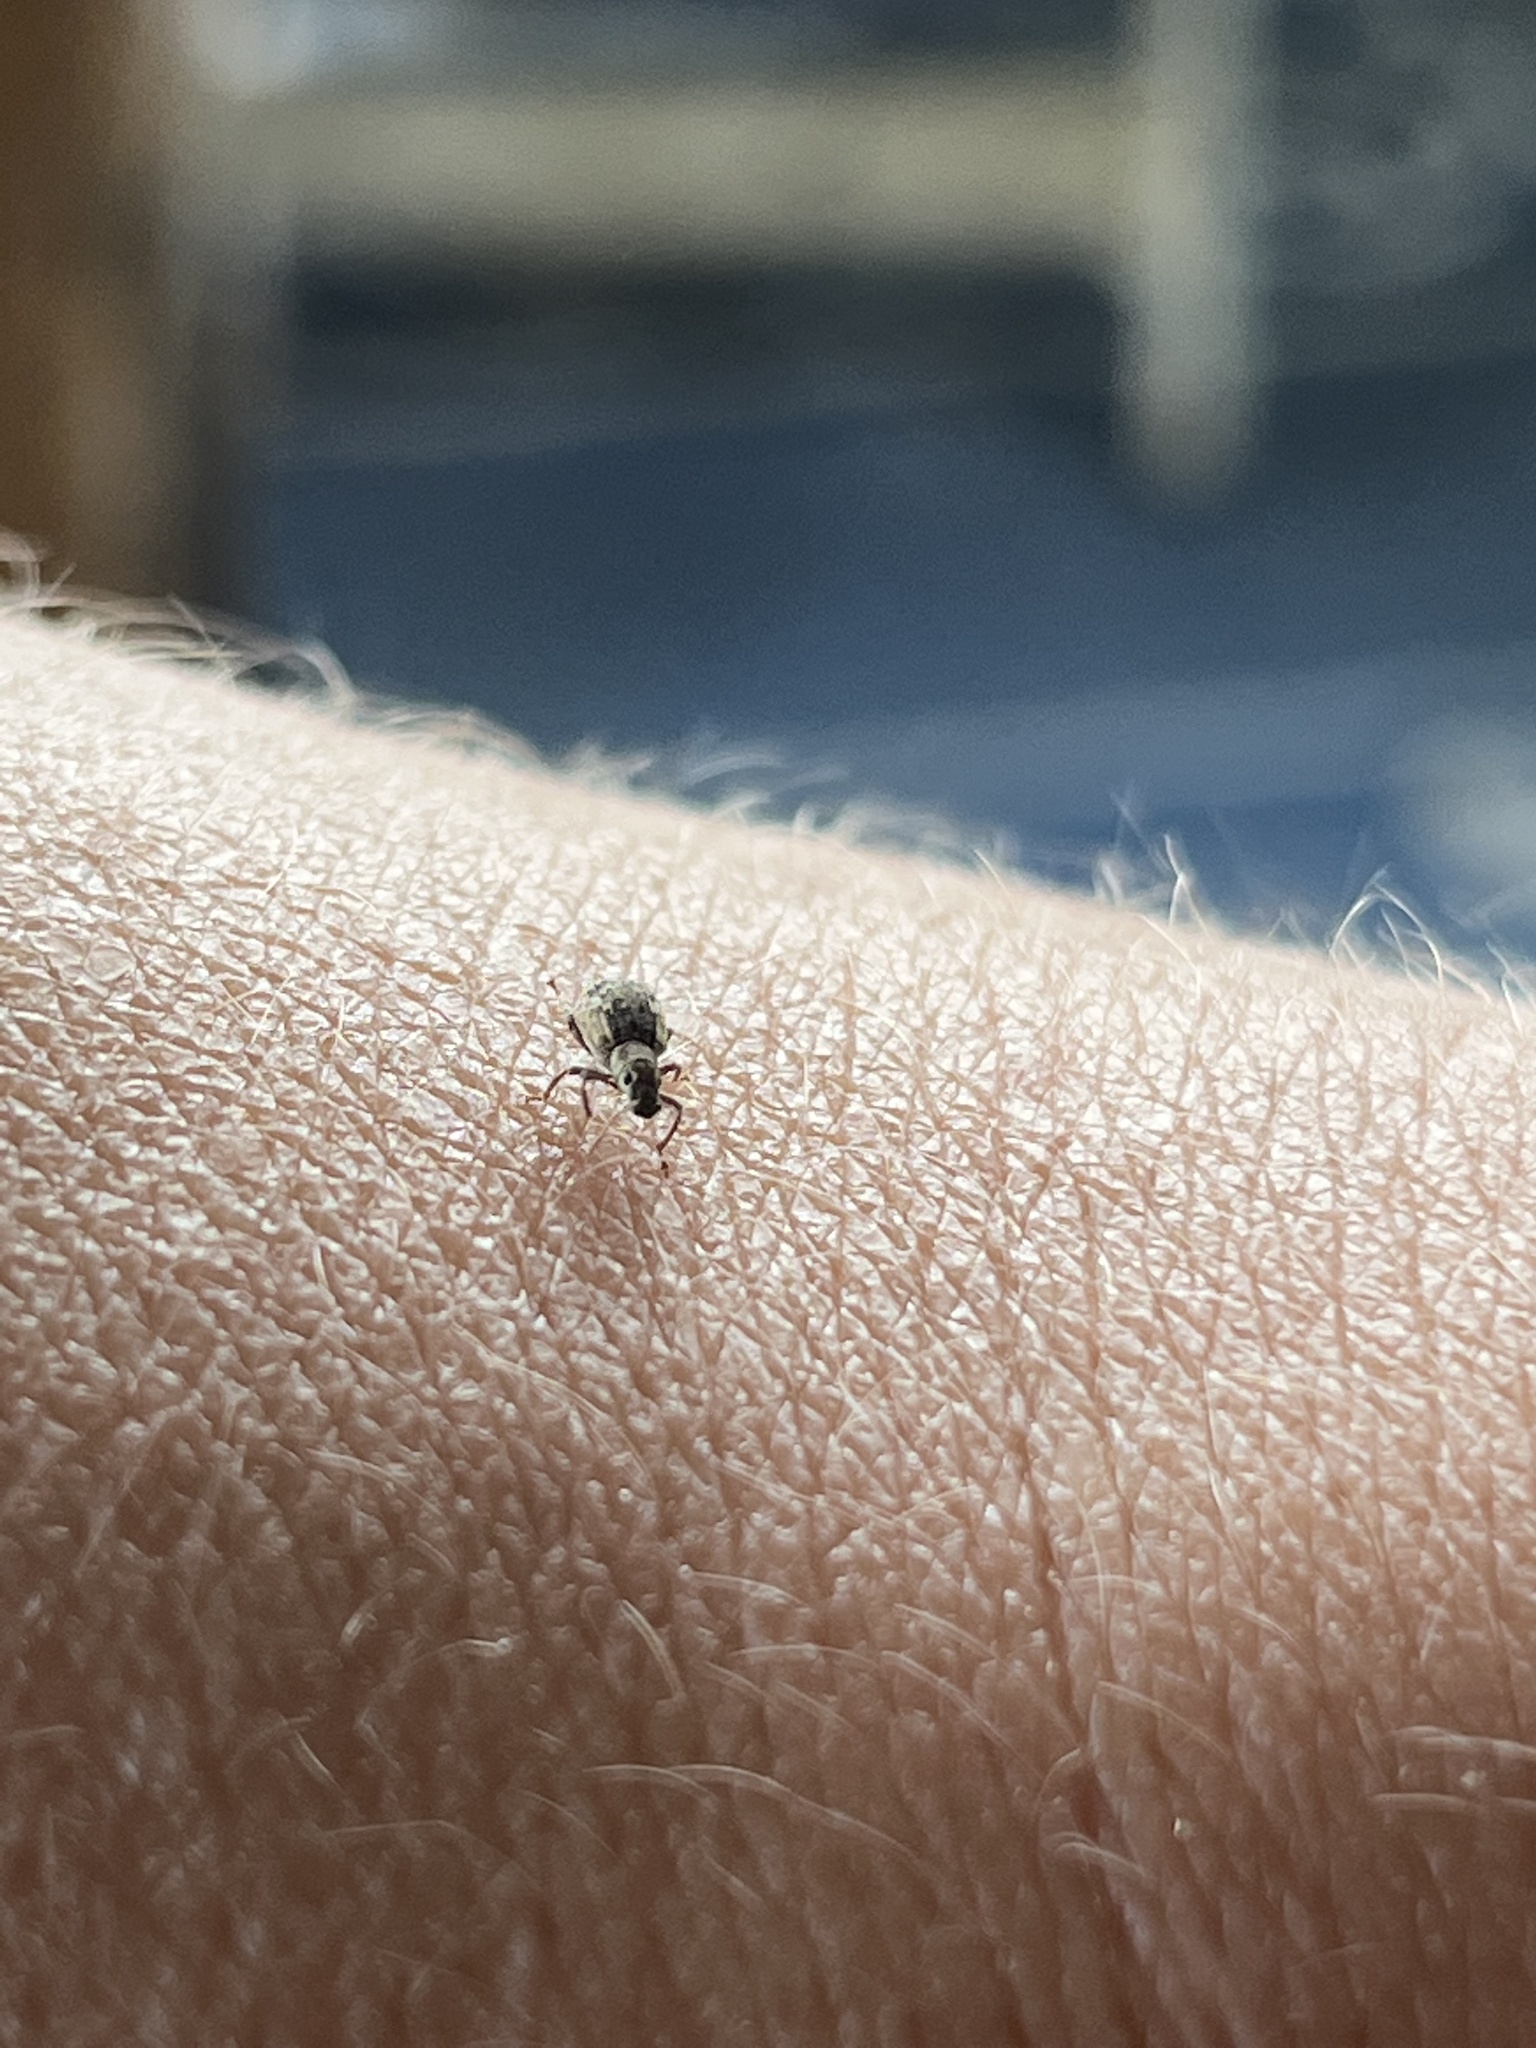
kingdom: Animalia
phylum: Arthropoda
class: Insecta
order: Coleoptera
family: Curculionidae
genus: Pseudoedophrys
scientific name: Pseudoedophrys hilleri
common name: Weevil
